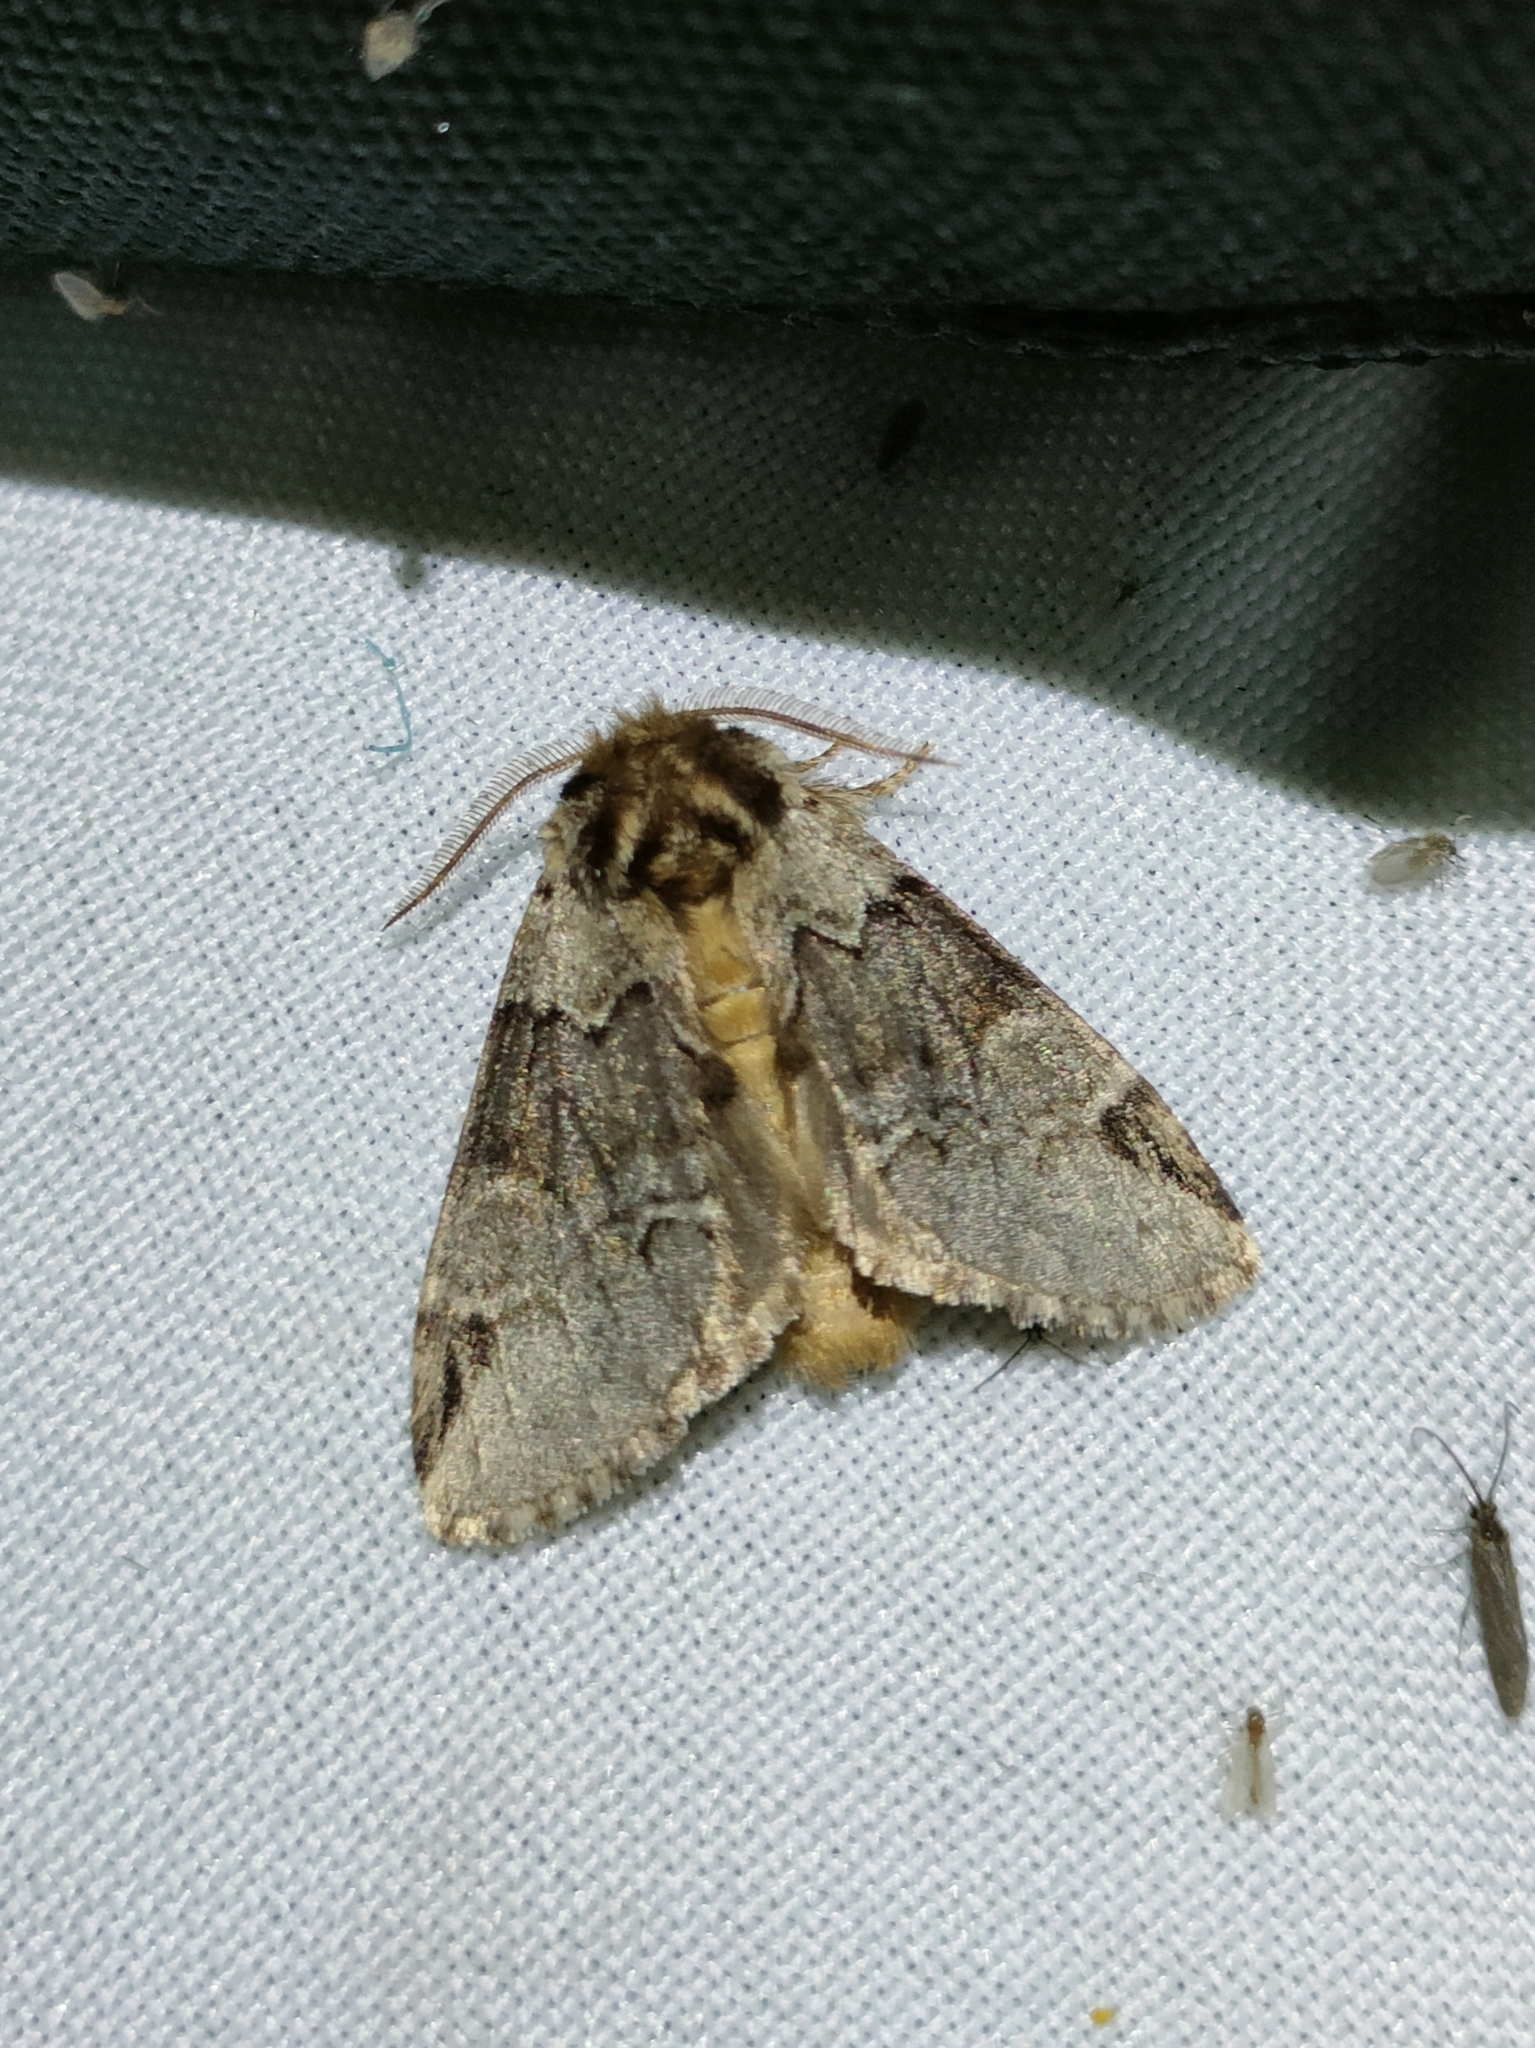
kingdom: Animalia
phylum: Arthropoda
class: Insecta
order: Lepidoptera
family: Notodontidae
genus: Drymonia
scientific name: Drymonia obliterata
